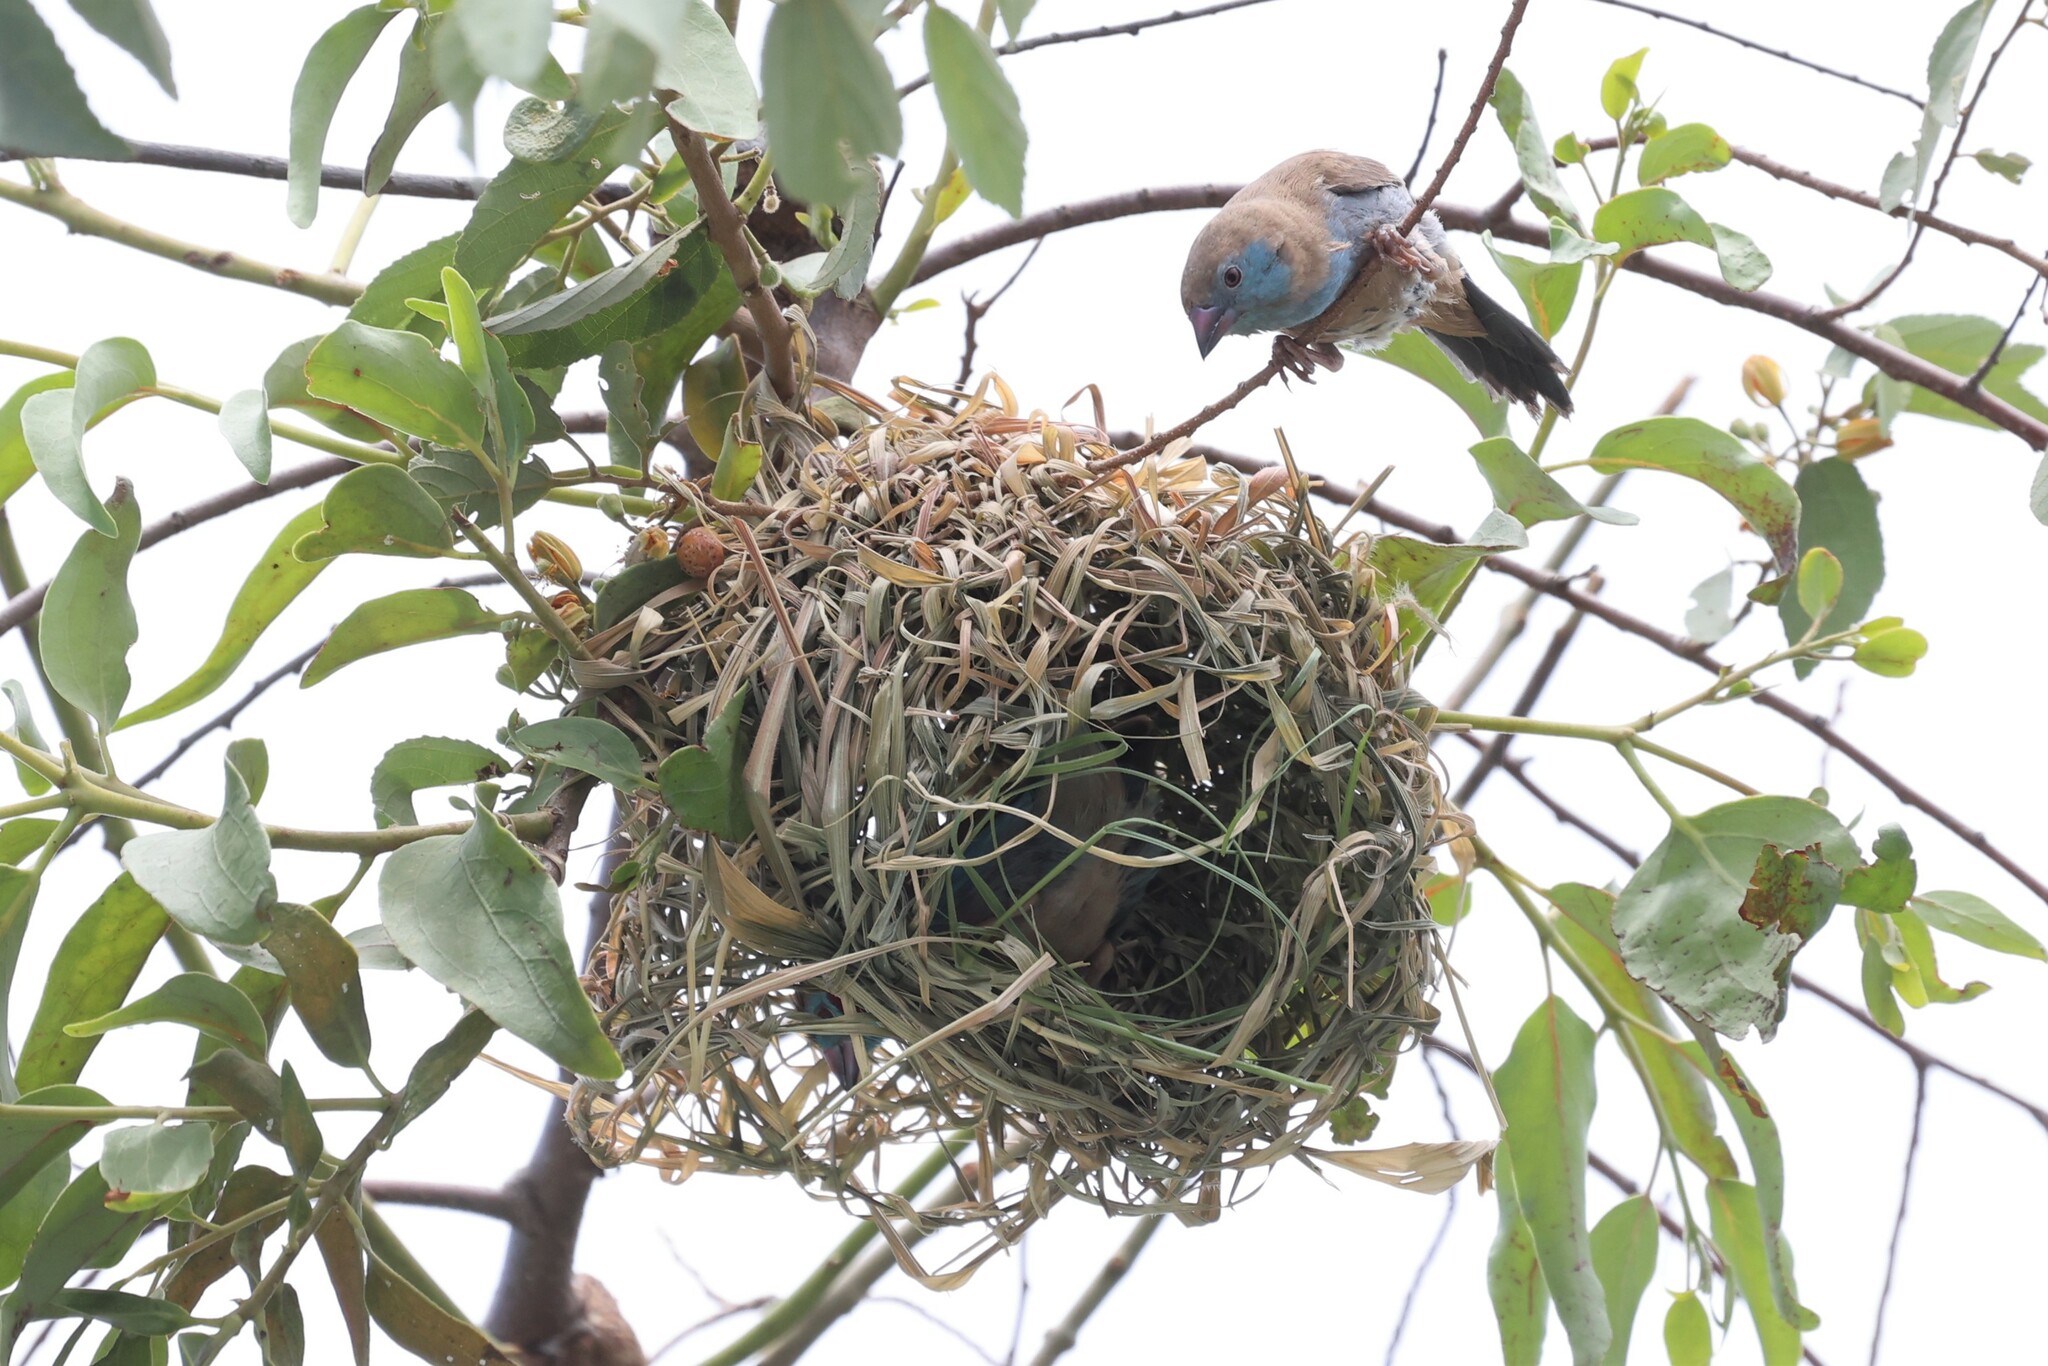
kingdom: Animalia
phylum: Chordata
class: Aves
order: Passeriformes
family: Estrildidae
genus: Uraeginthus
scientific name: Uraeginthus bengalus
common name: Red-cheeked cordon-bleu
